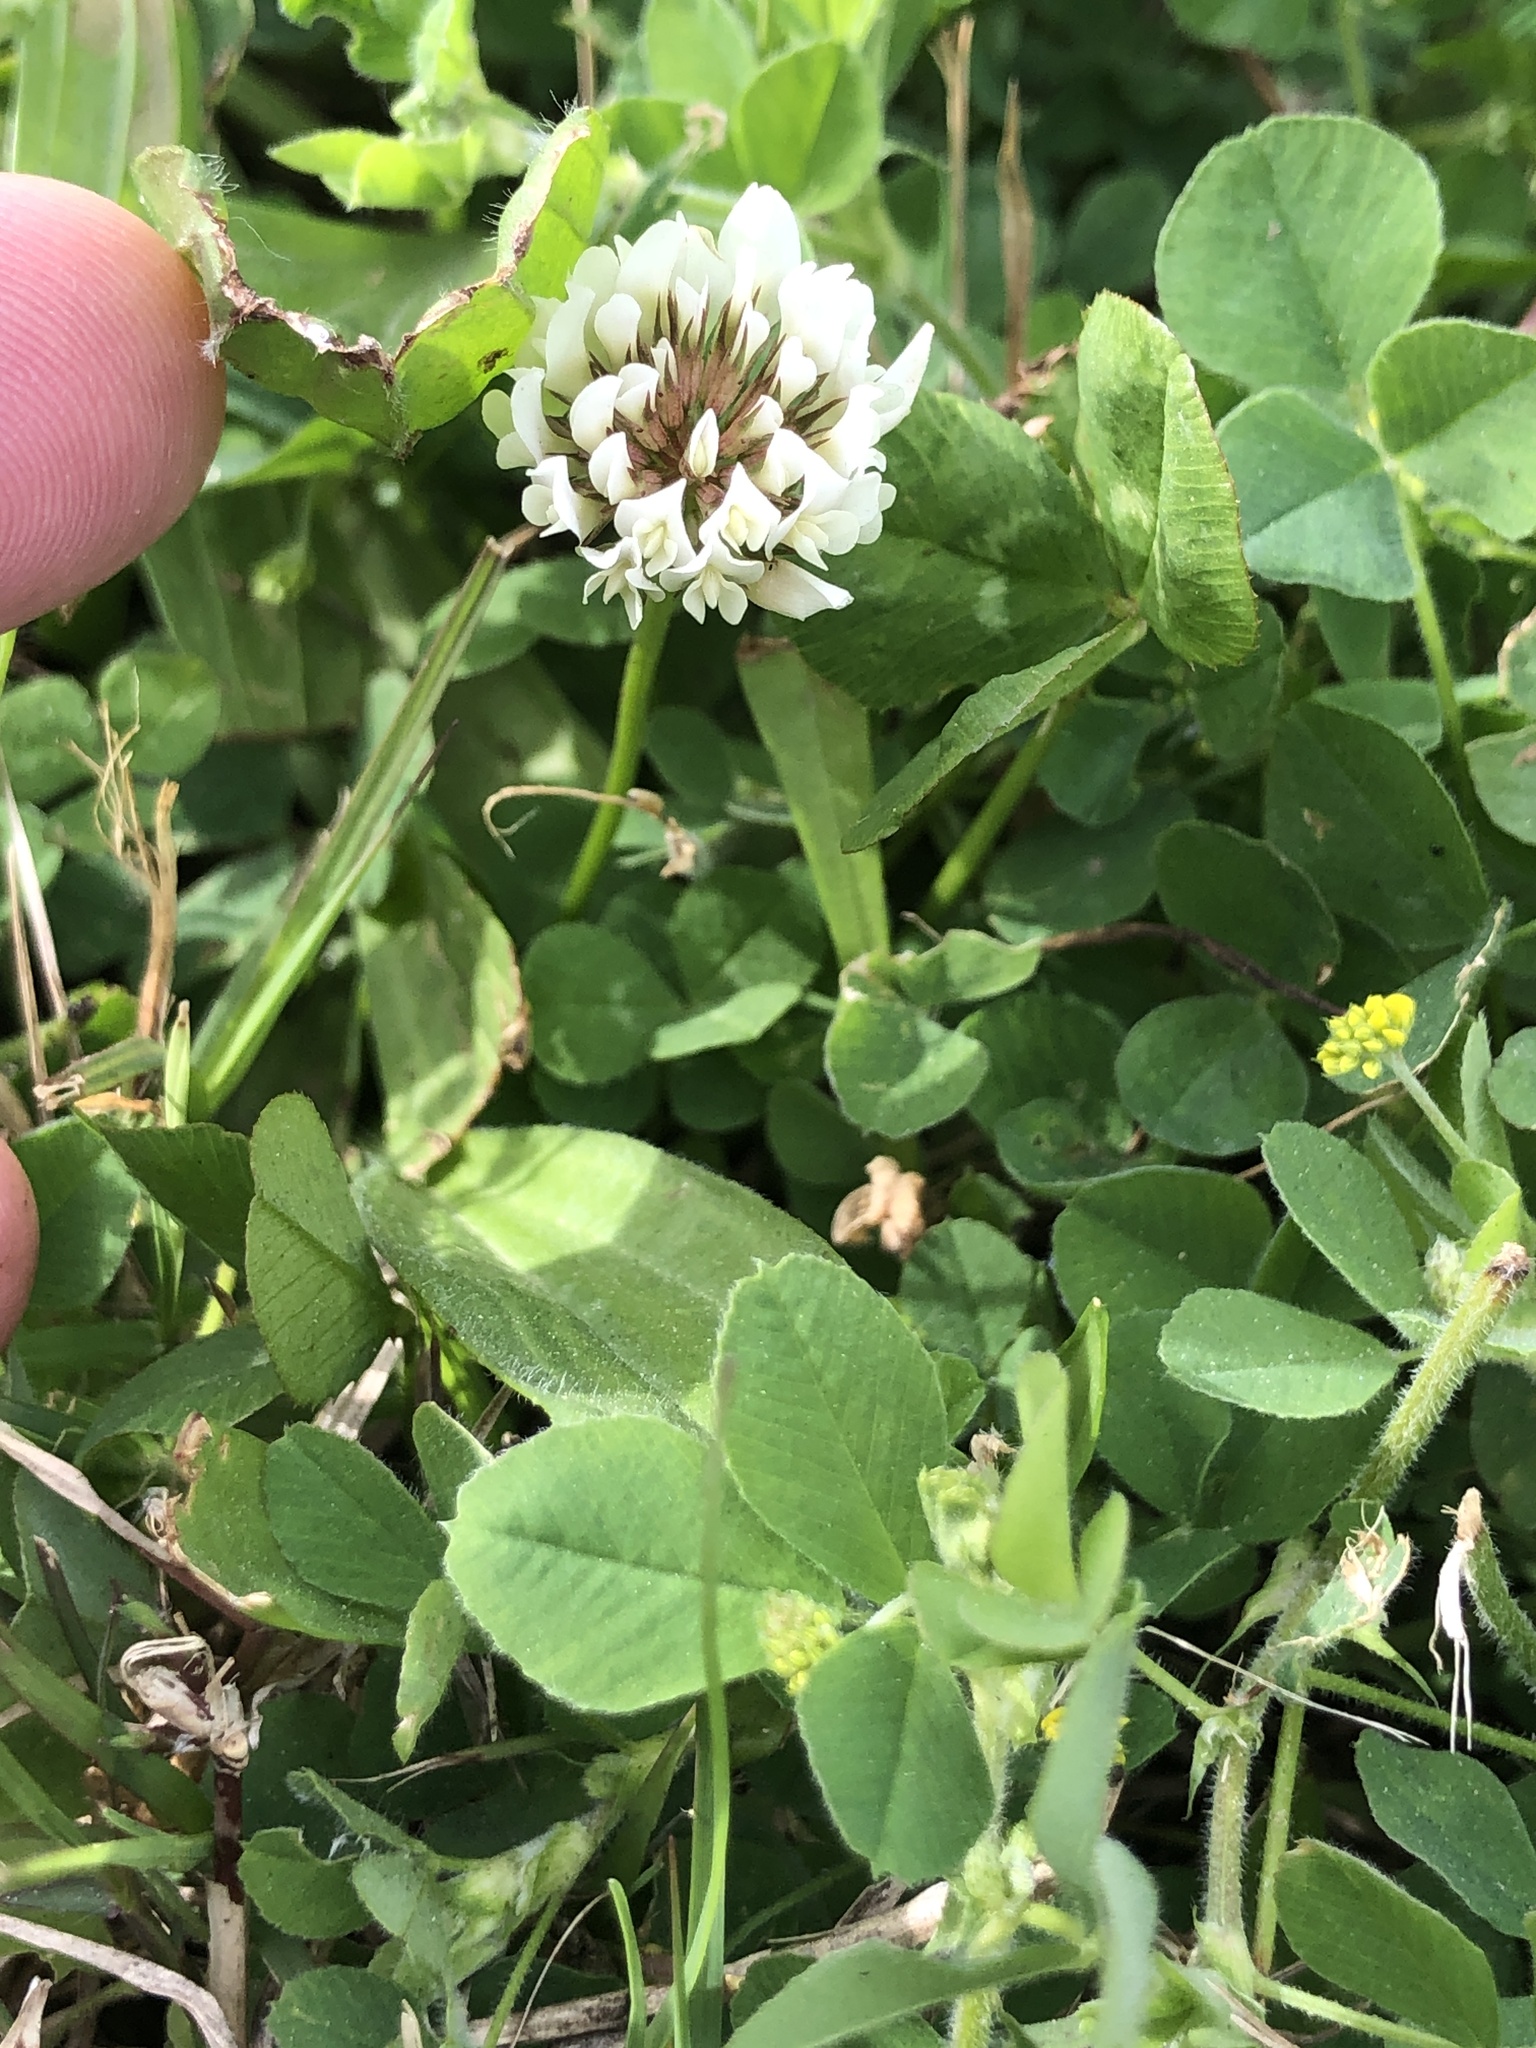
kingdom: Plantae
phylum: Tracheophyta
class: Magnoliopsida
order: Fabales
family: Fabaceae
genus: Trifolium
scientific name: Trifolium repens
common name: White clover
